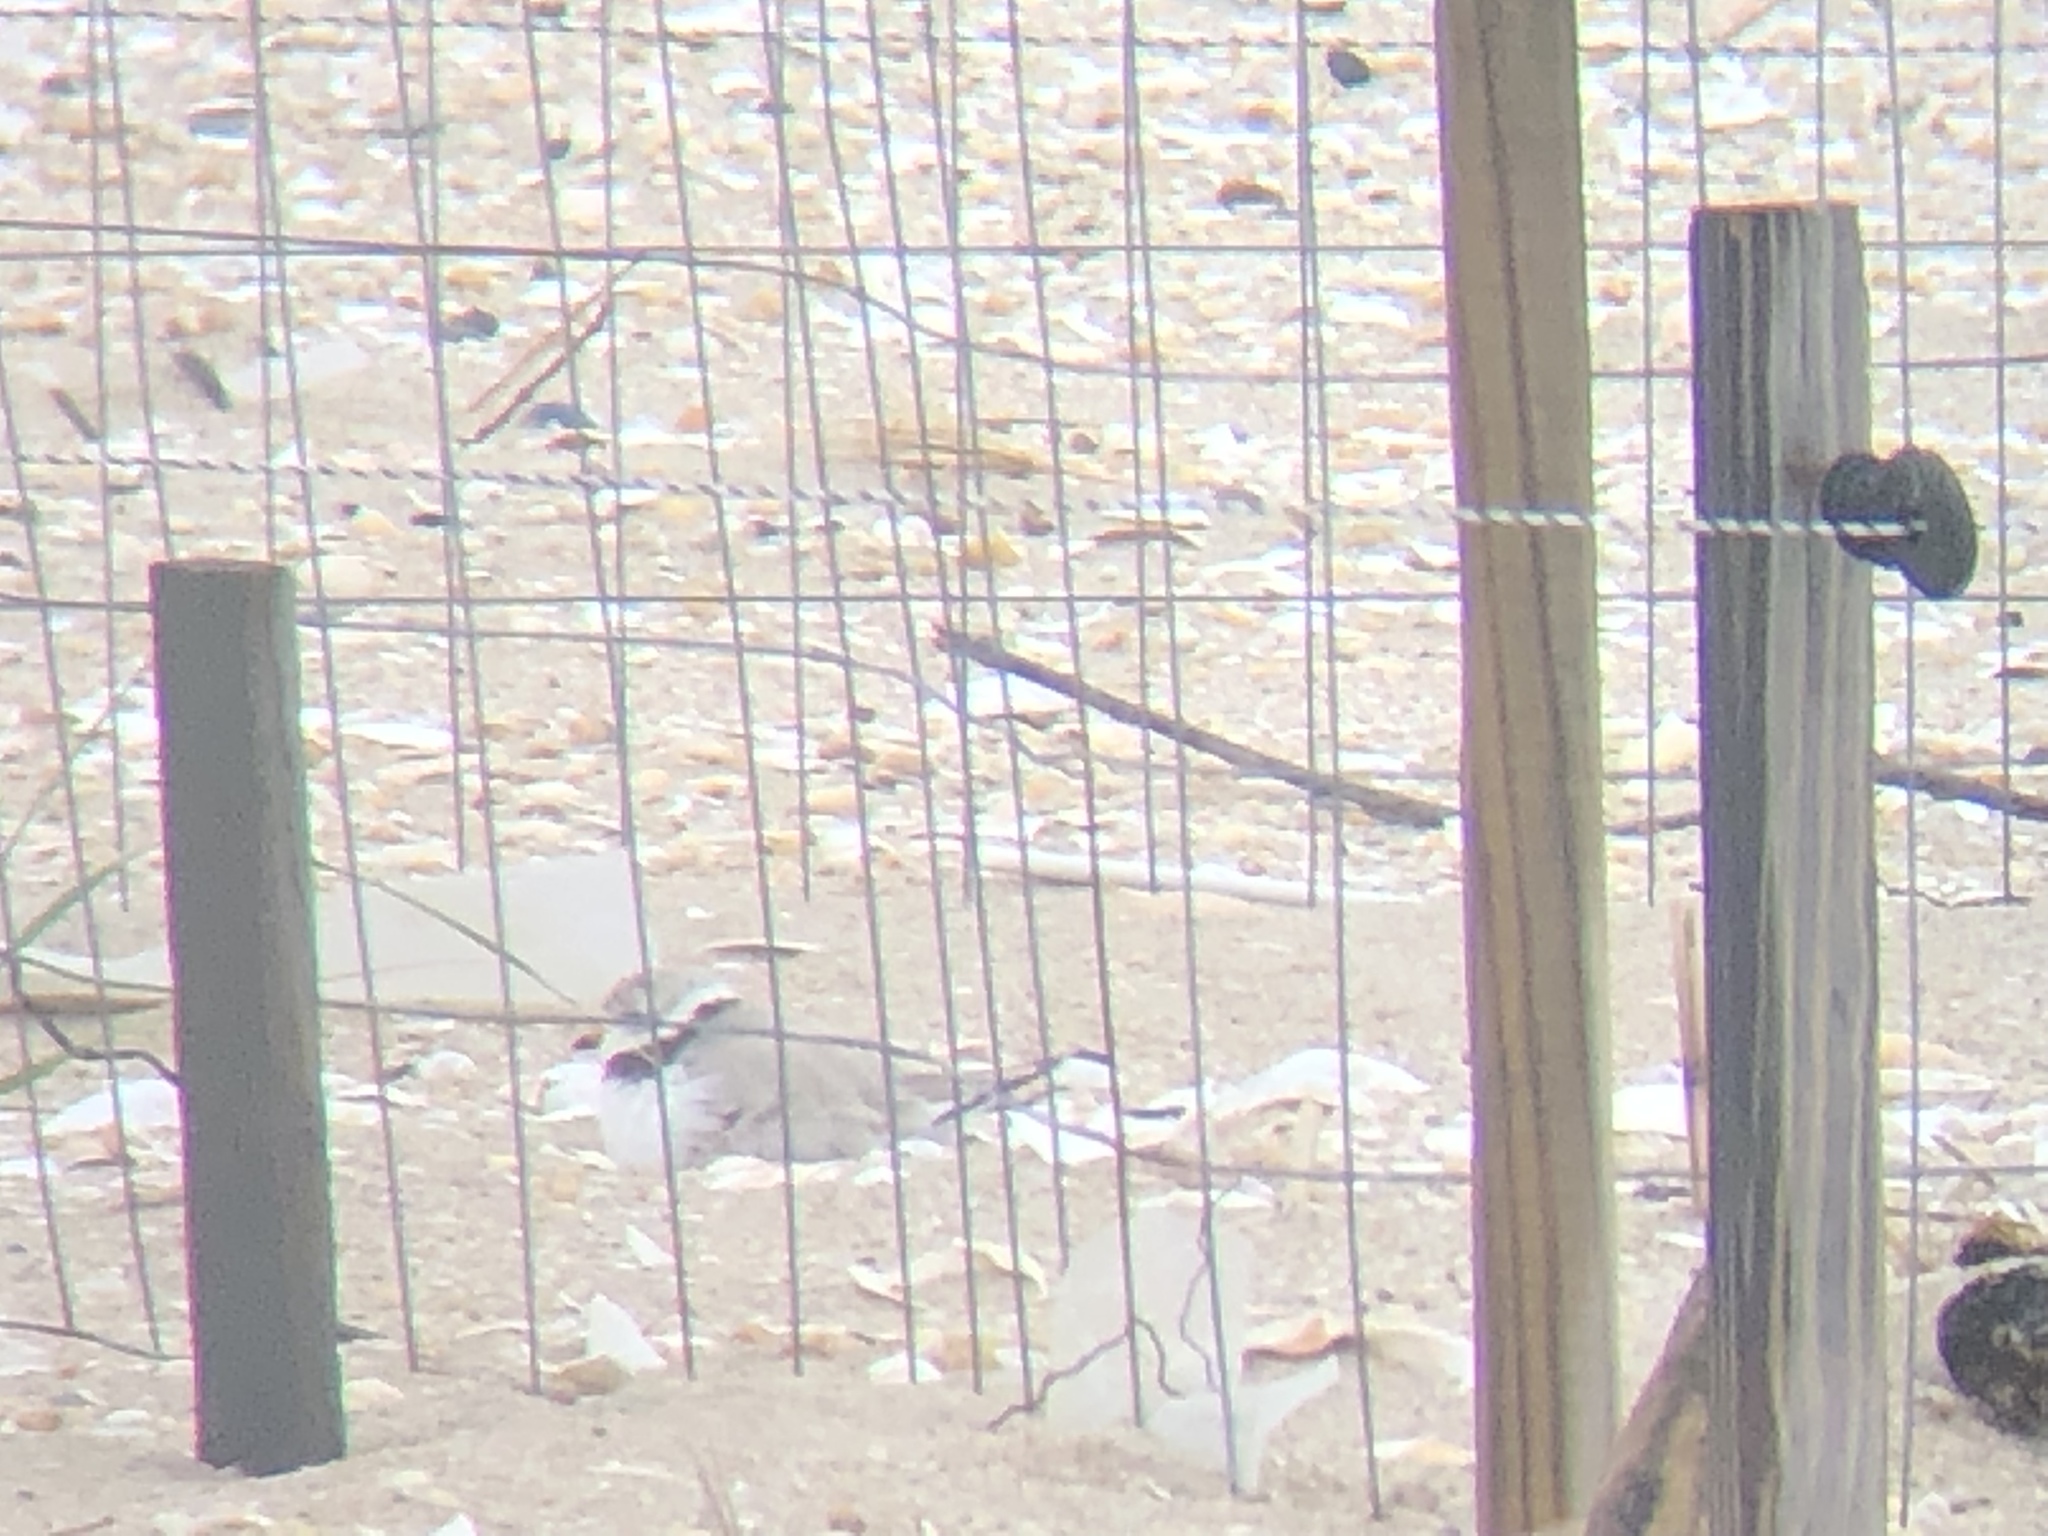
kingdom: Animalia
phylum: Chordata
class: Aves
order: Charadriiformes
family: Charadriidae
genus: Charadrius
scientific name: Charadrius melodus
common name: Piping plover
